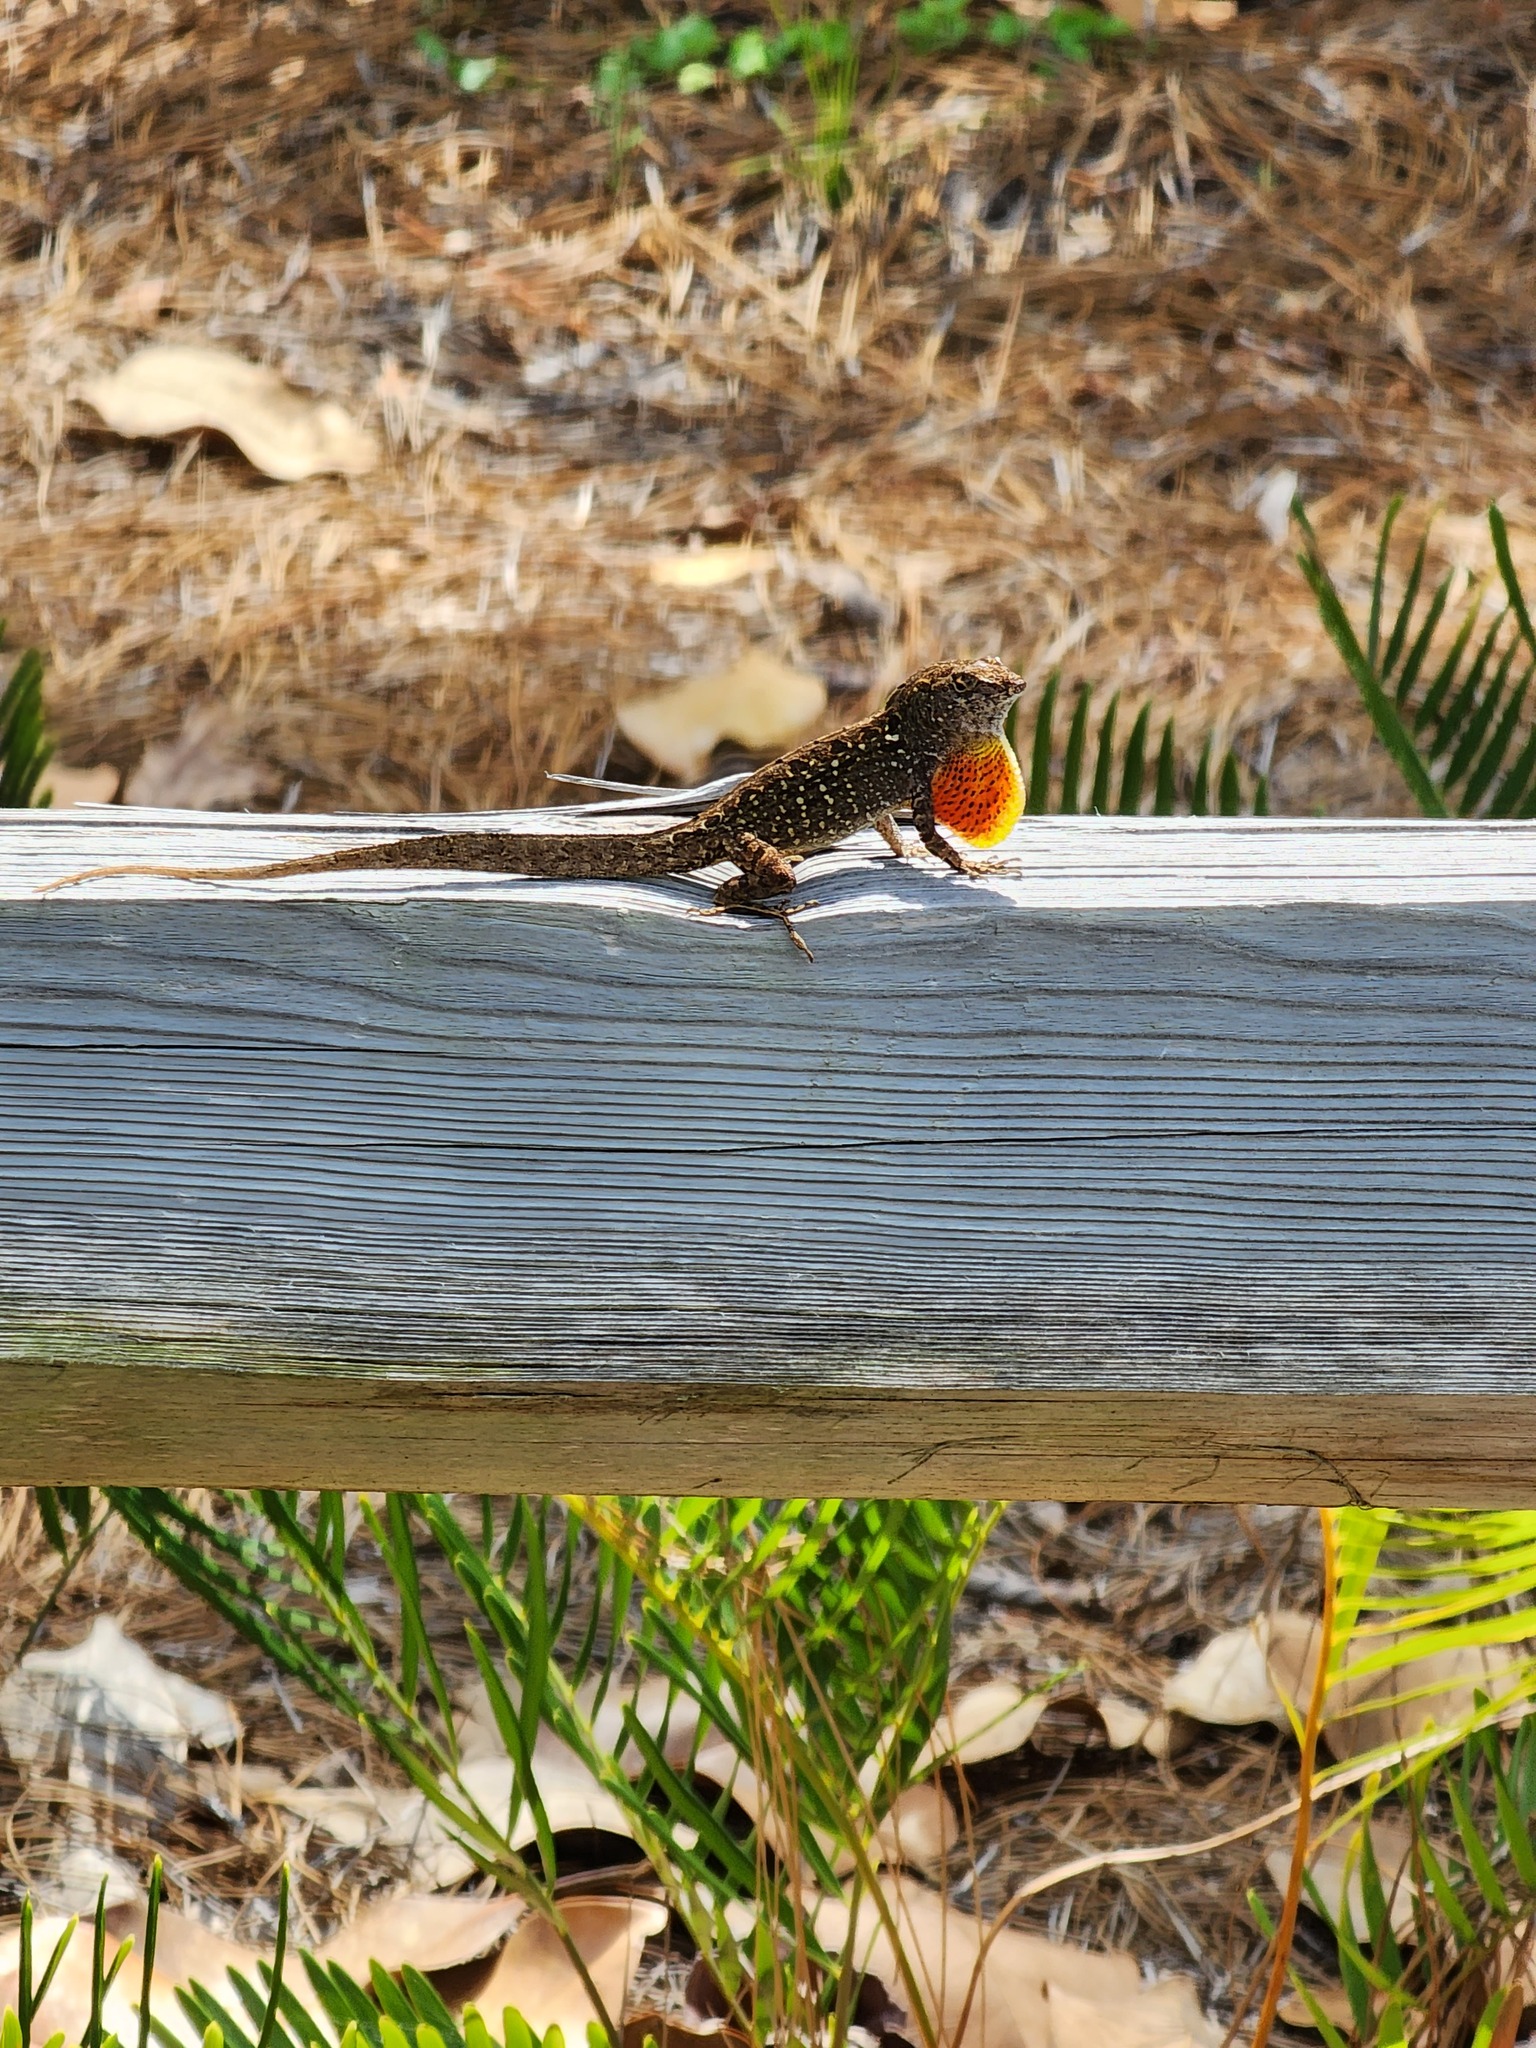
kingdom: Animalia
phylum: Chordata
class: Squamata
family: Dactyloidae
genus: Anolis
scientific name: Anolis sagrei
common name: Brown anole
